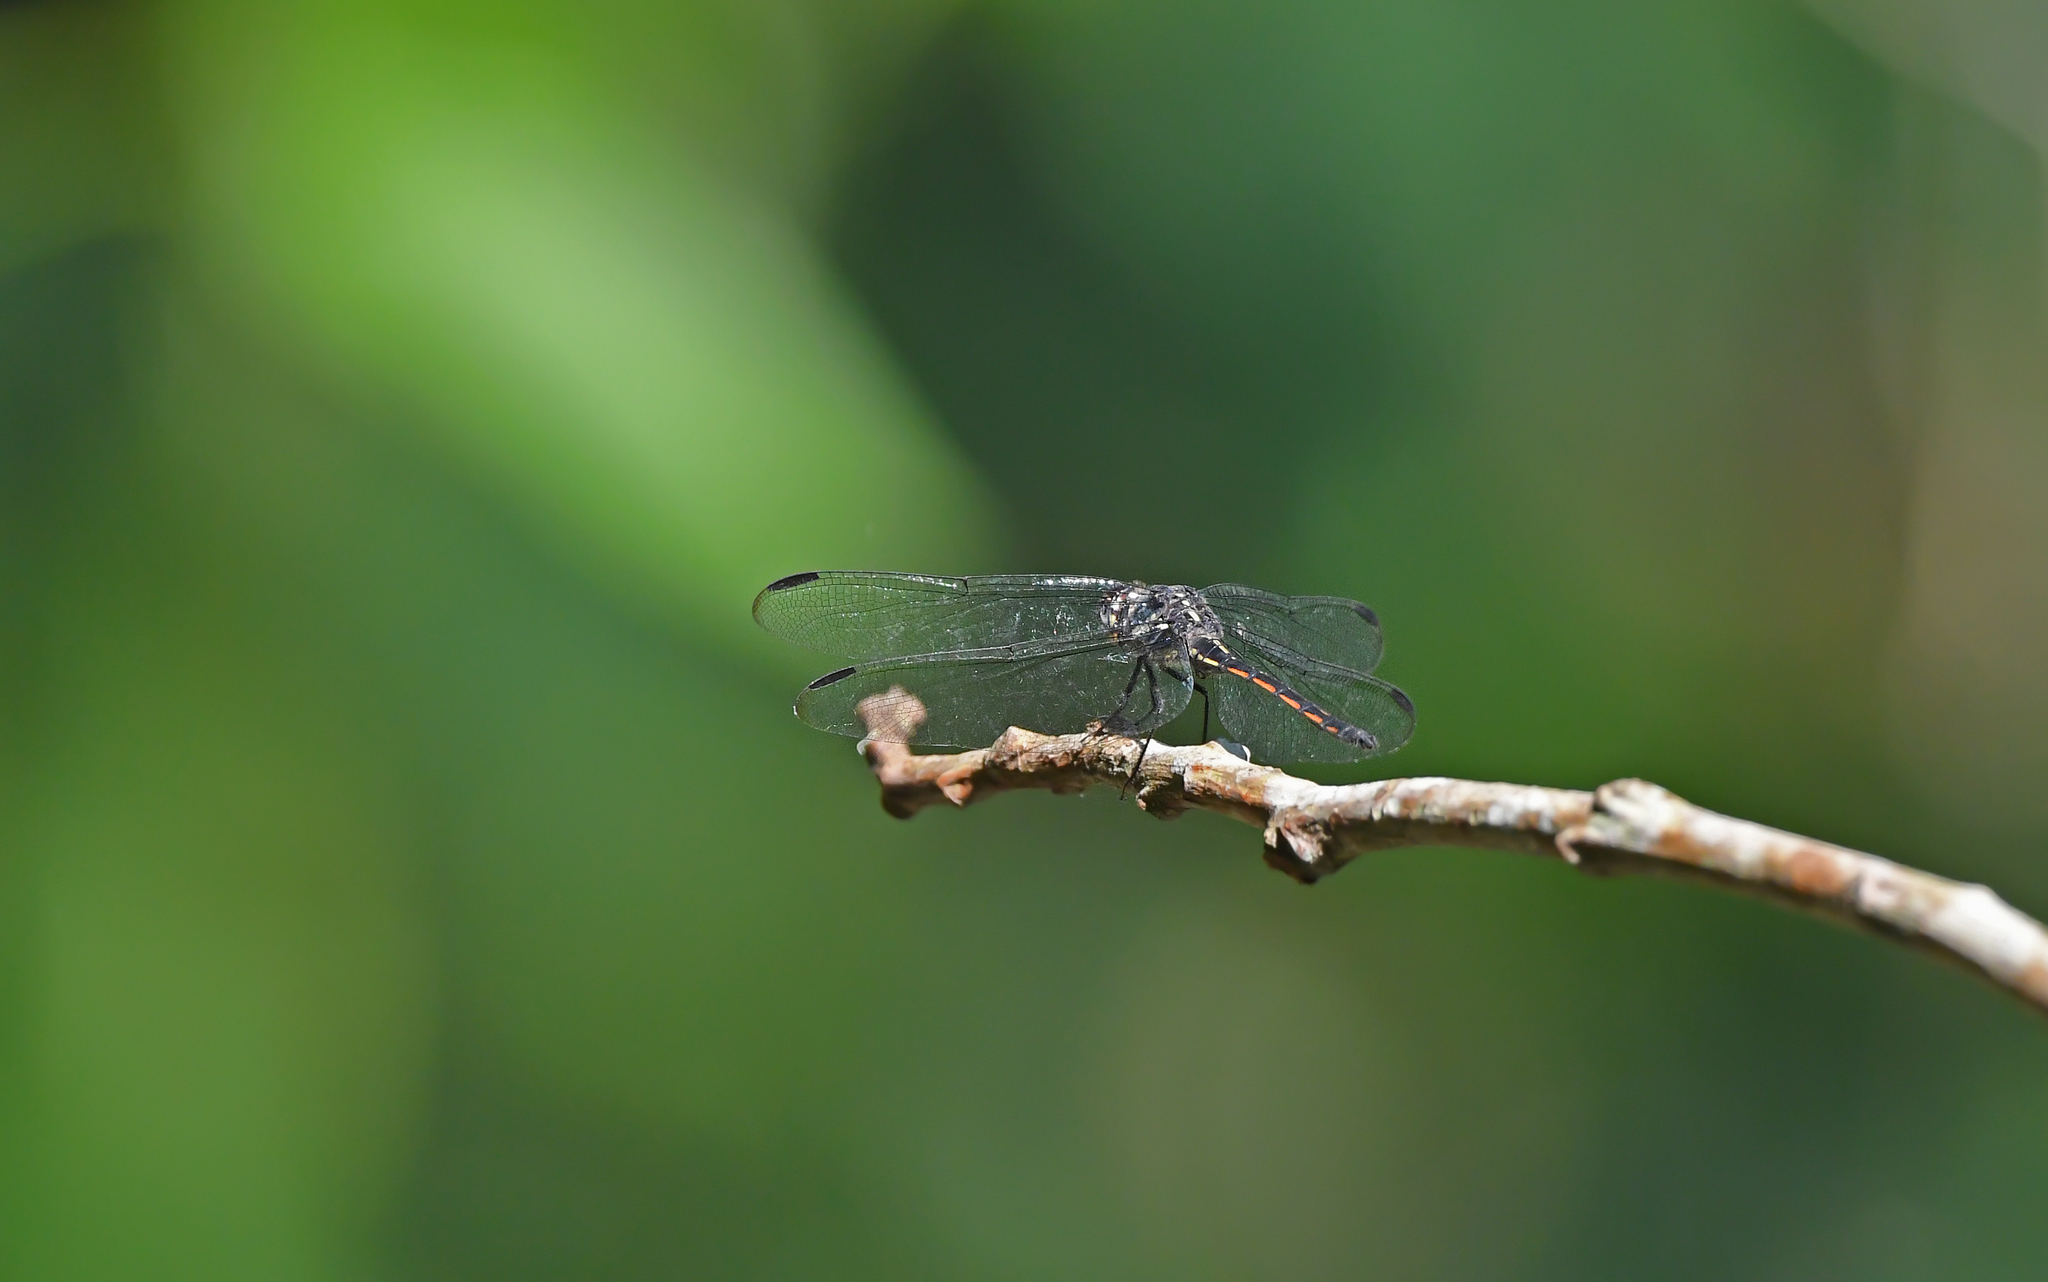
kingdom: Animalia
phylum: Arthropoda
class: Insecta
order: Odonata
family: Libellulidae
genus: Orthemis
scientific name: Orthemis cultriformis
